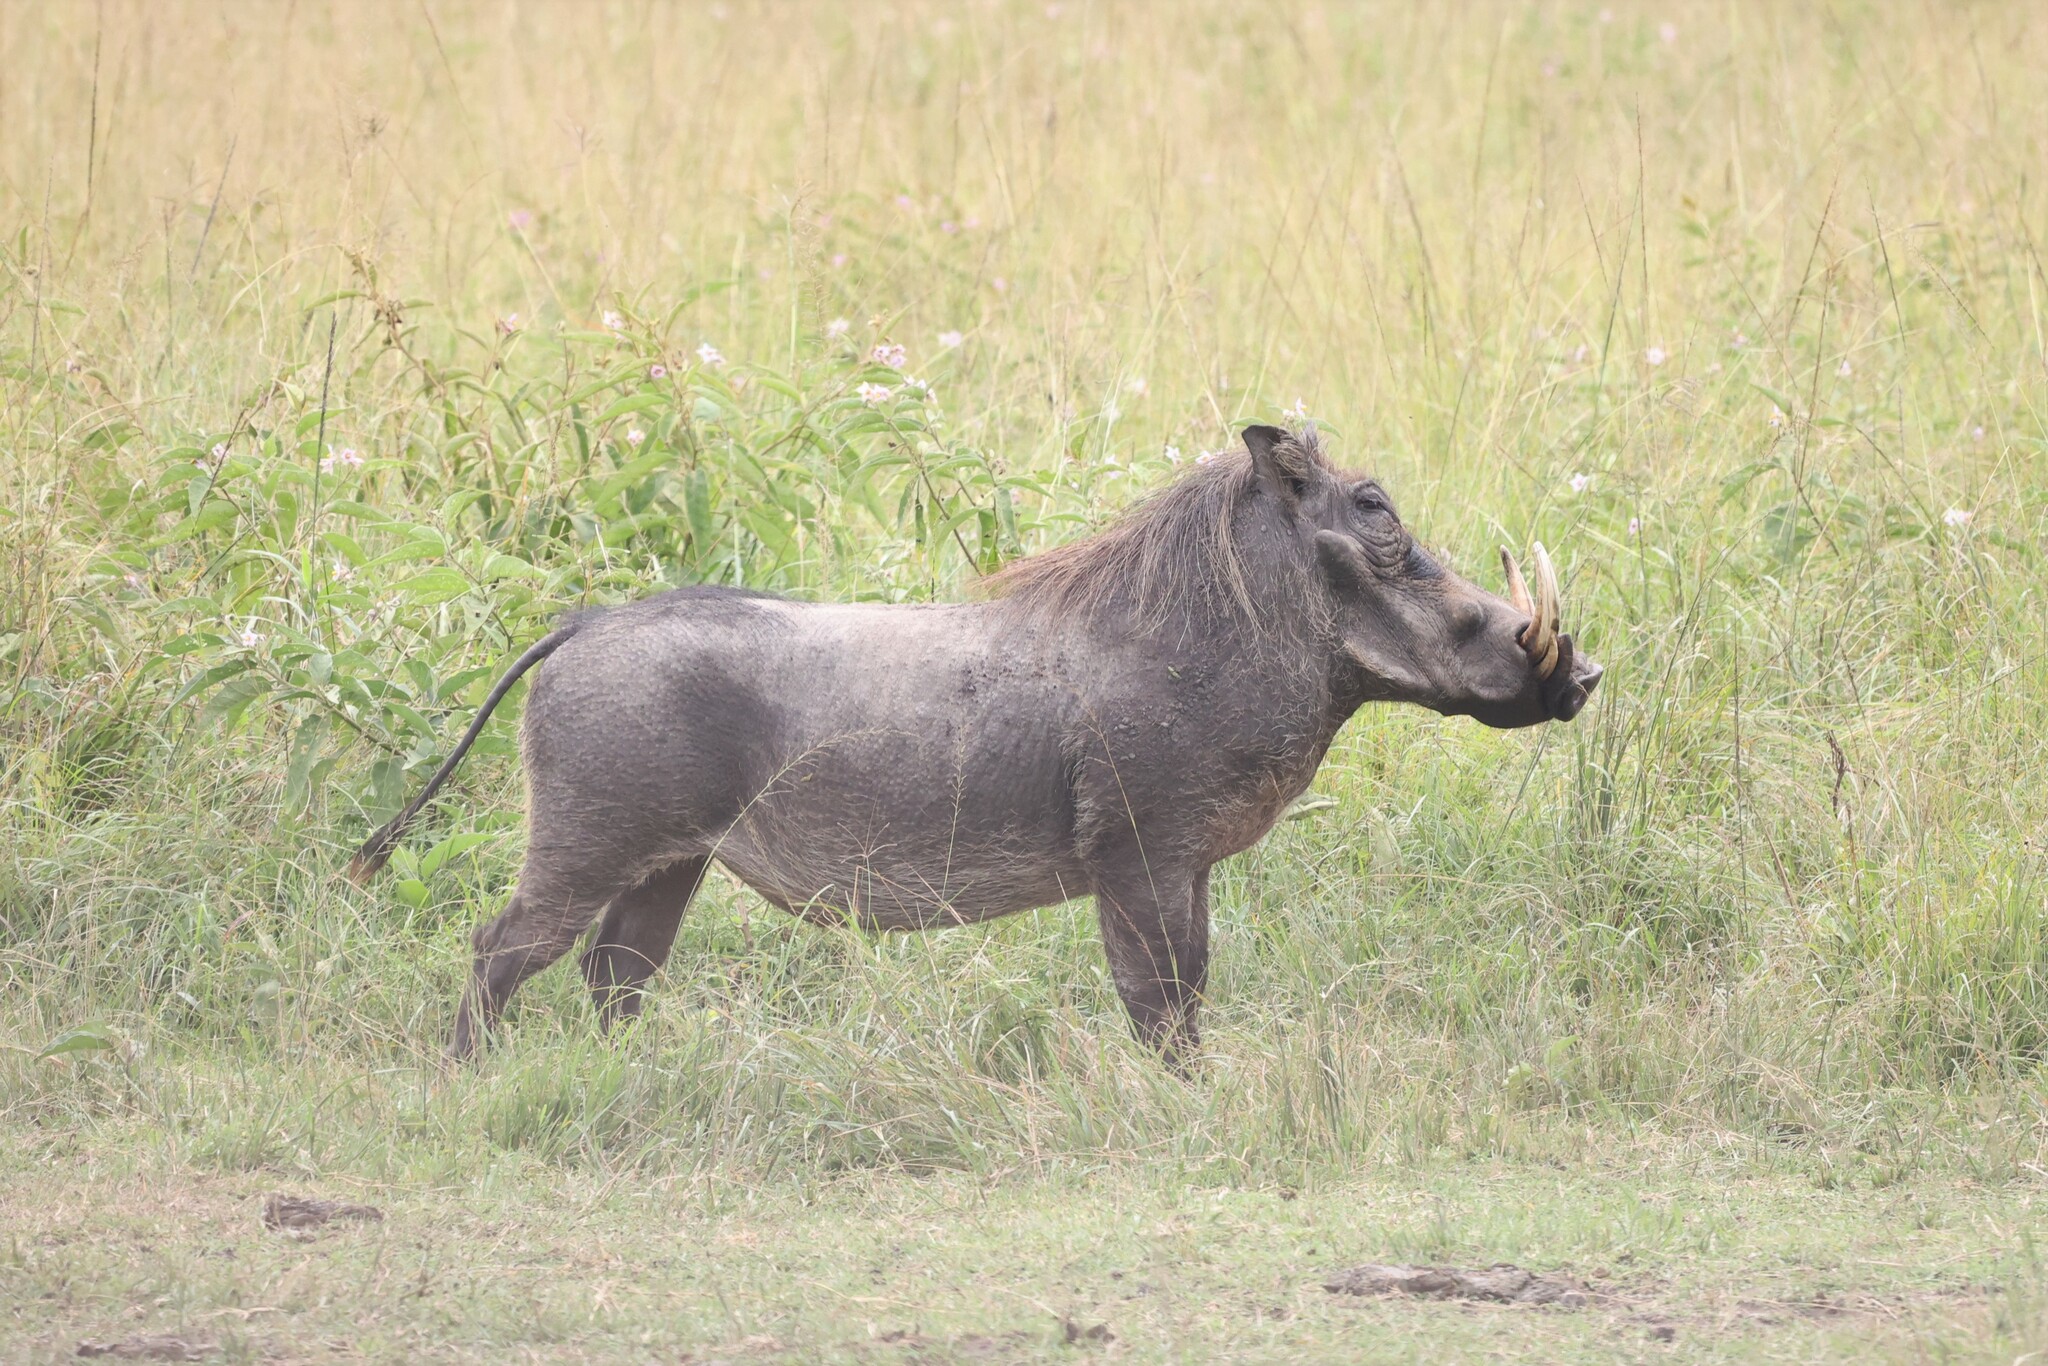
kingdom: Animalia
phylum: Chordata
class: Mammalia
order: Artiodactyla
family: Suidae
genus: Phacochoerus
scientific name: Phacochoerus africanus
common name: Common warthog
